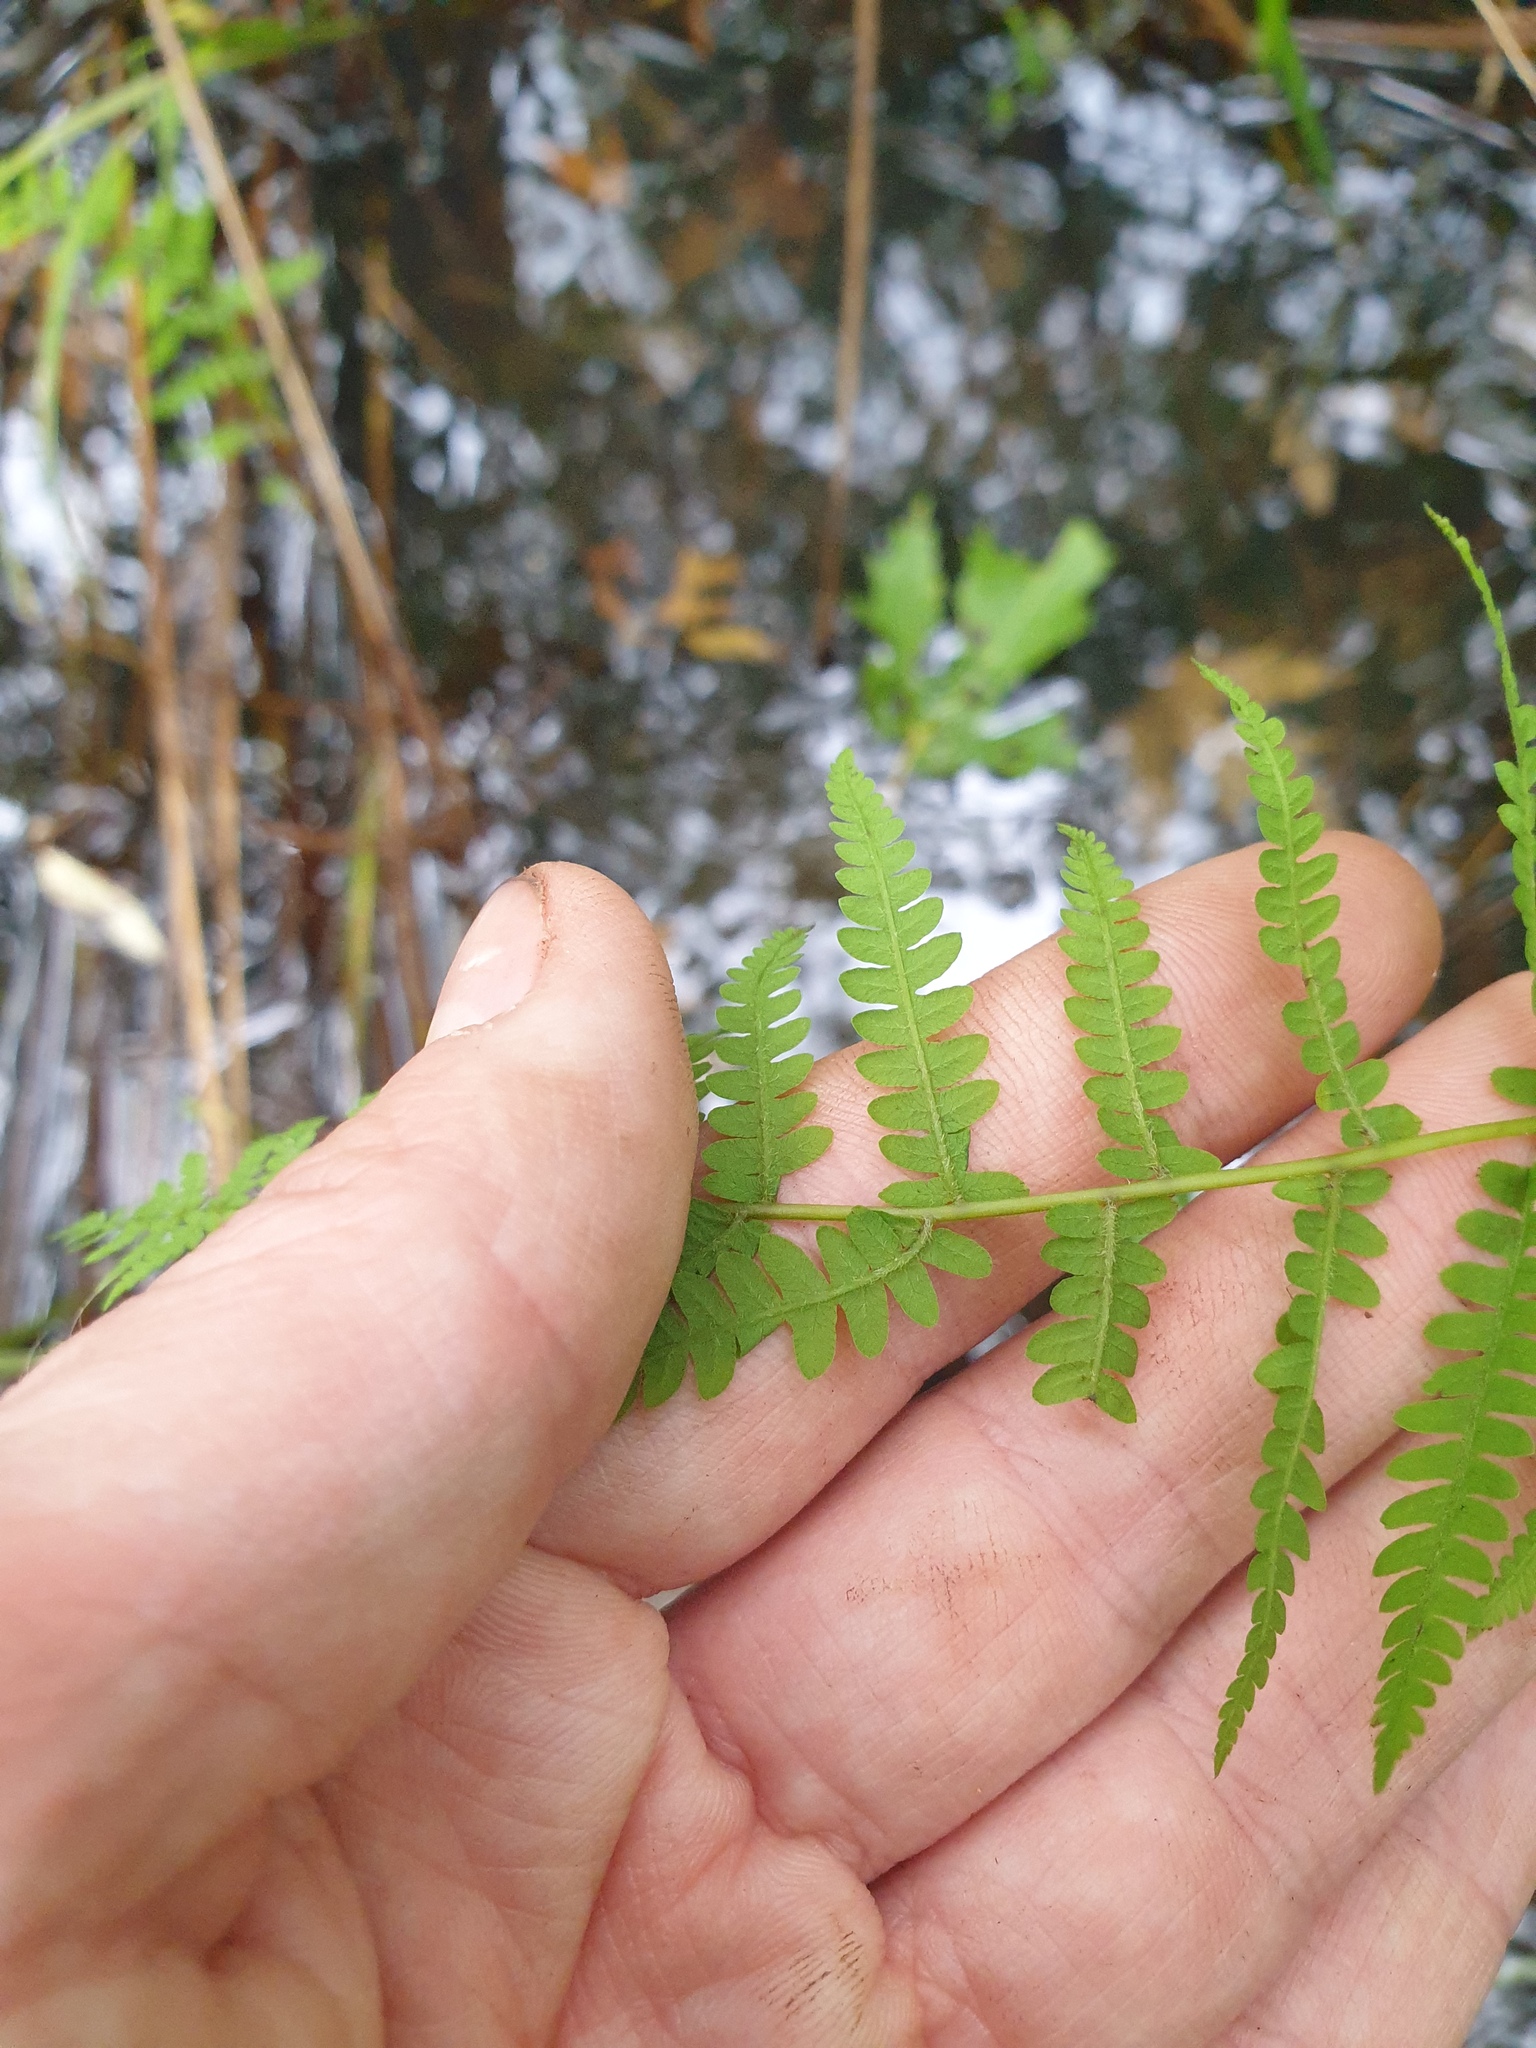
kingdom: Plantae
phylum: Tracheophyta
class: Polypodiopsida
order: Polypodiales
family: Thelypteridaceae
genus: Thelypteris
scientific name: Thelypteris palustris
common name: Marsh fern
